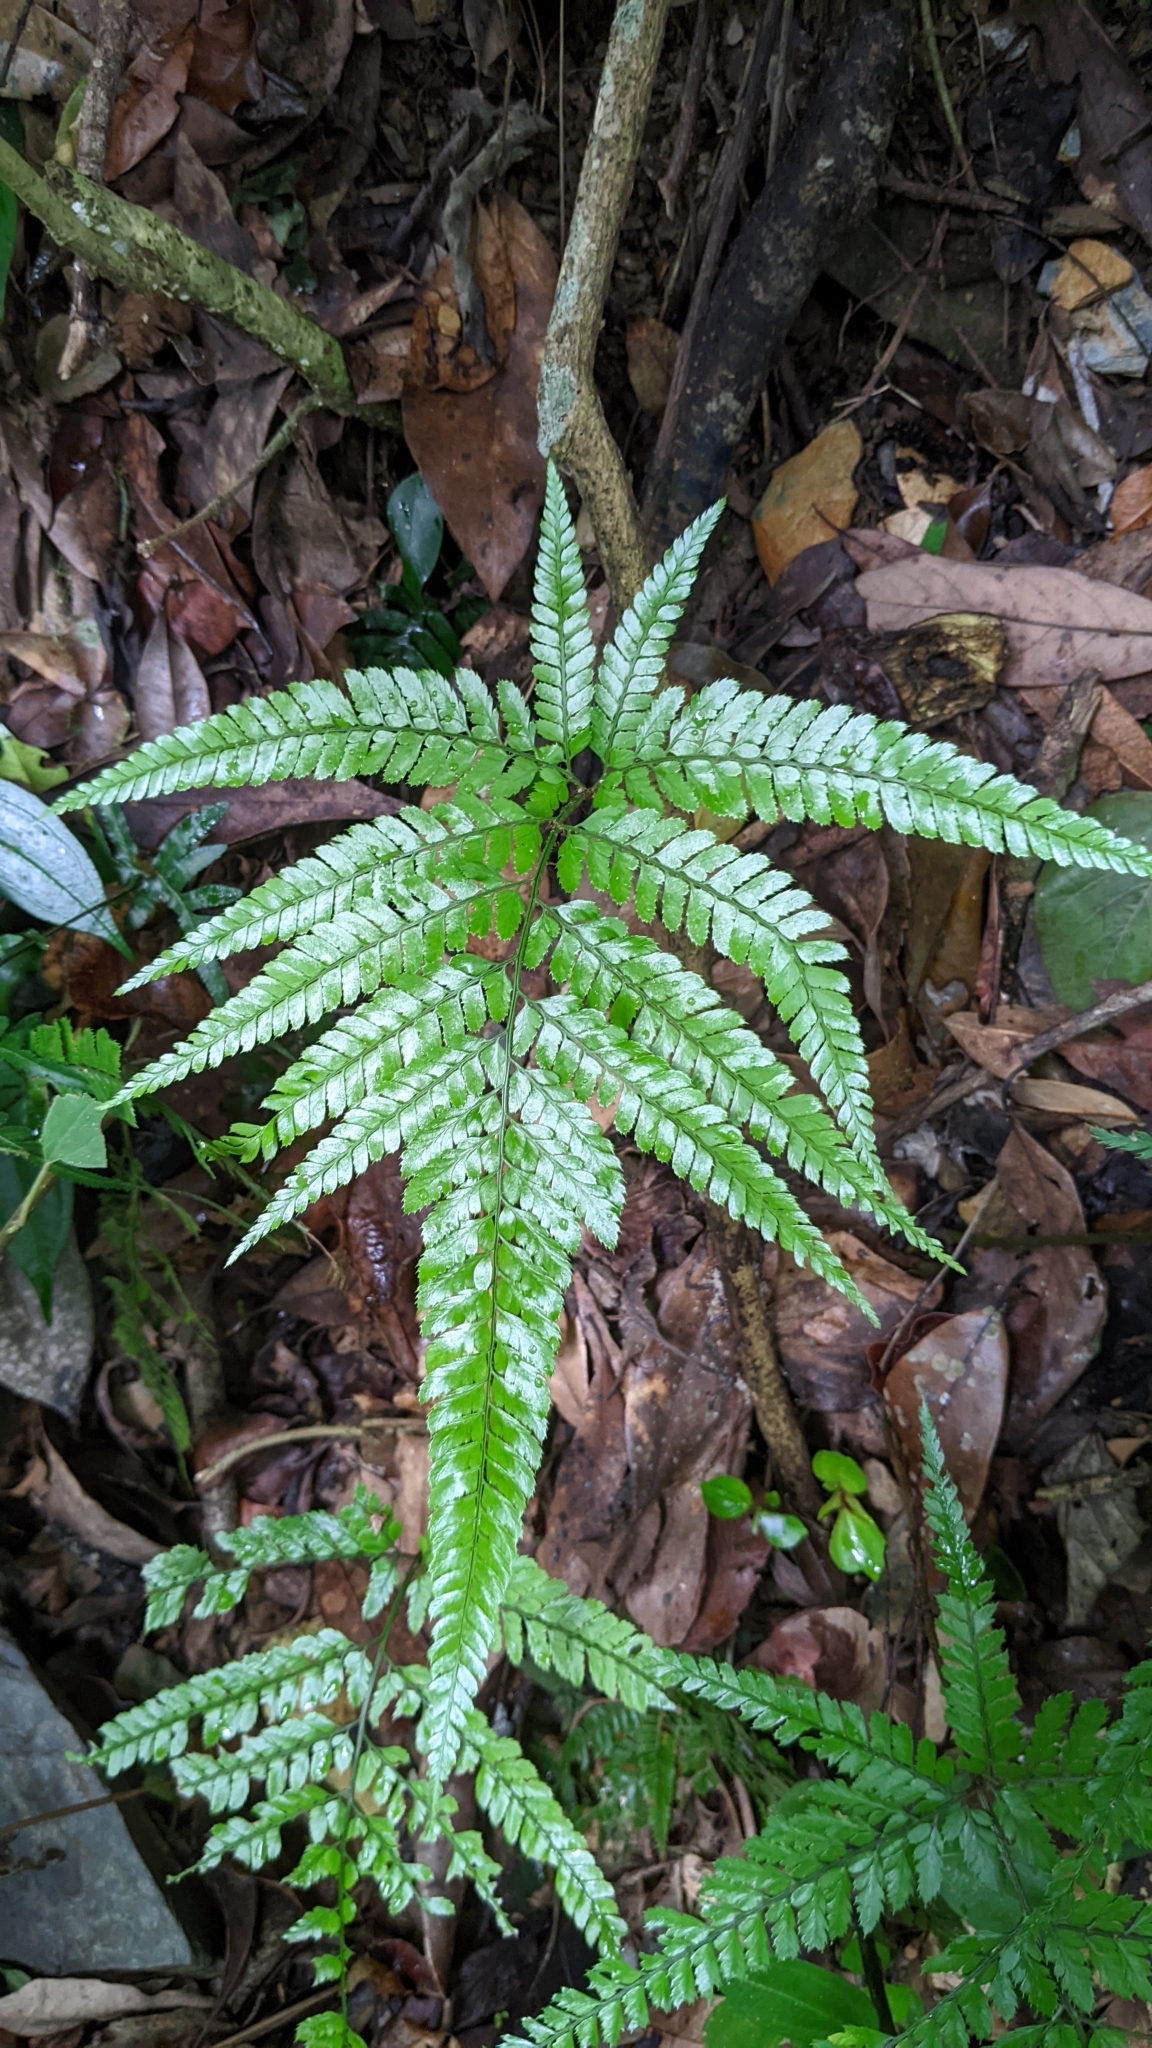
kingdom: Plantae
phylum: Tracheophyta
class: Polypodiopsida
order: Polypodiales
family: Dryopteridaceae
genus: Arachniodes
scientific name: Arachniodes aristata
